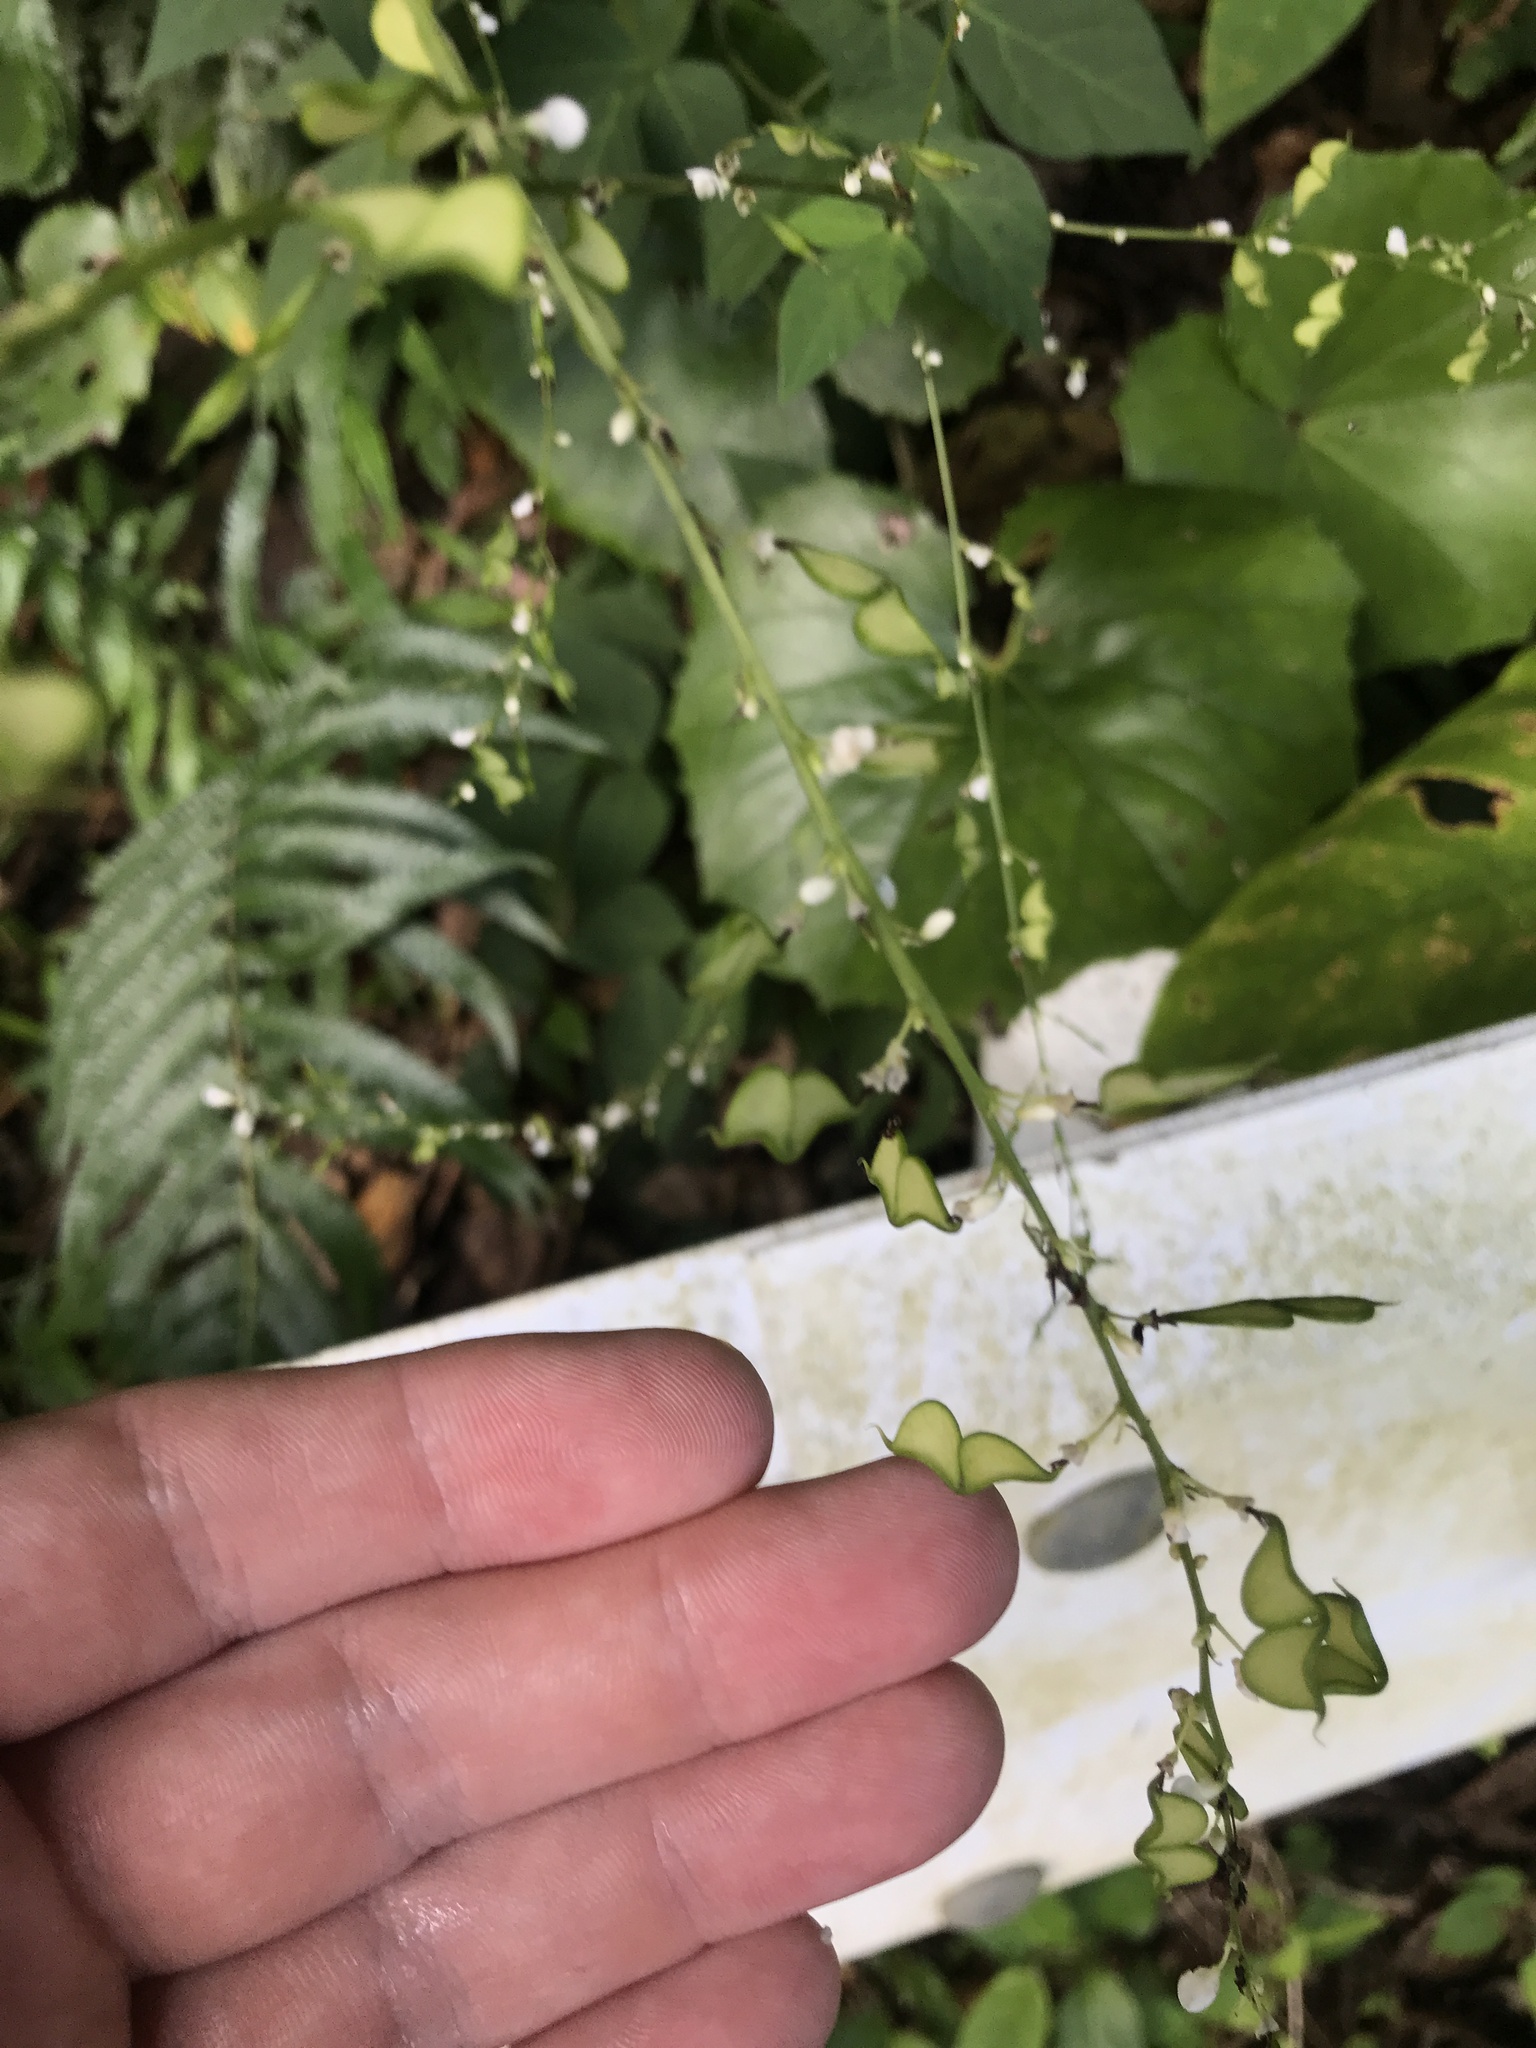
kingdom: Plantae
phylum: Tracheophyta
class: Magnoliopsida
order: Fabales
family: Fabaceae
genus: Hylodesmum
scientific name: Hylodesmum podocarpum
